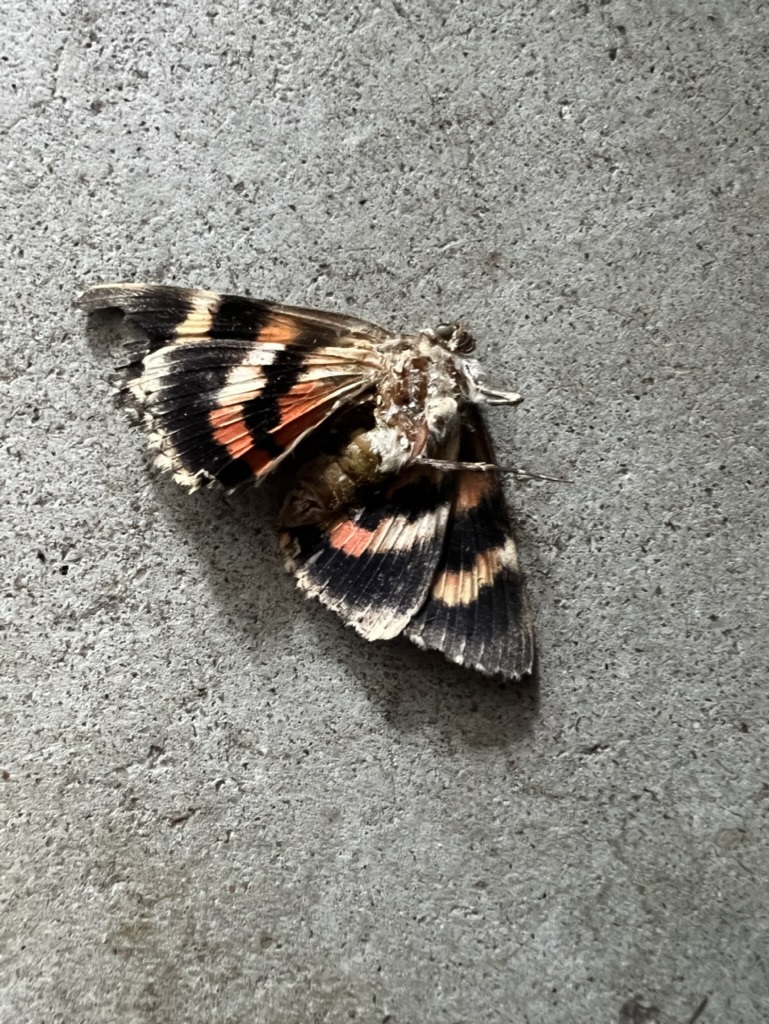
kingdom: Animalia
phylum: Arthropoda
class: Insecta
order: Lepidoptera
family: Erebidae
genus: Catocala
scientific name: Catocala ilia
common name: Ilia underwing
